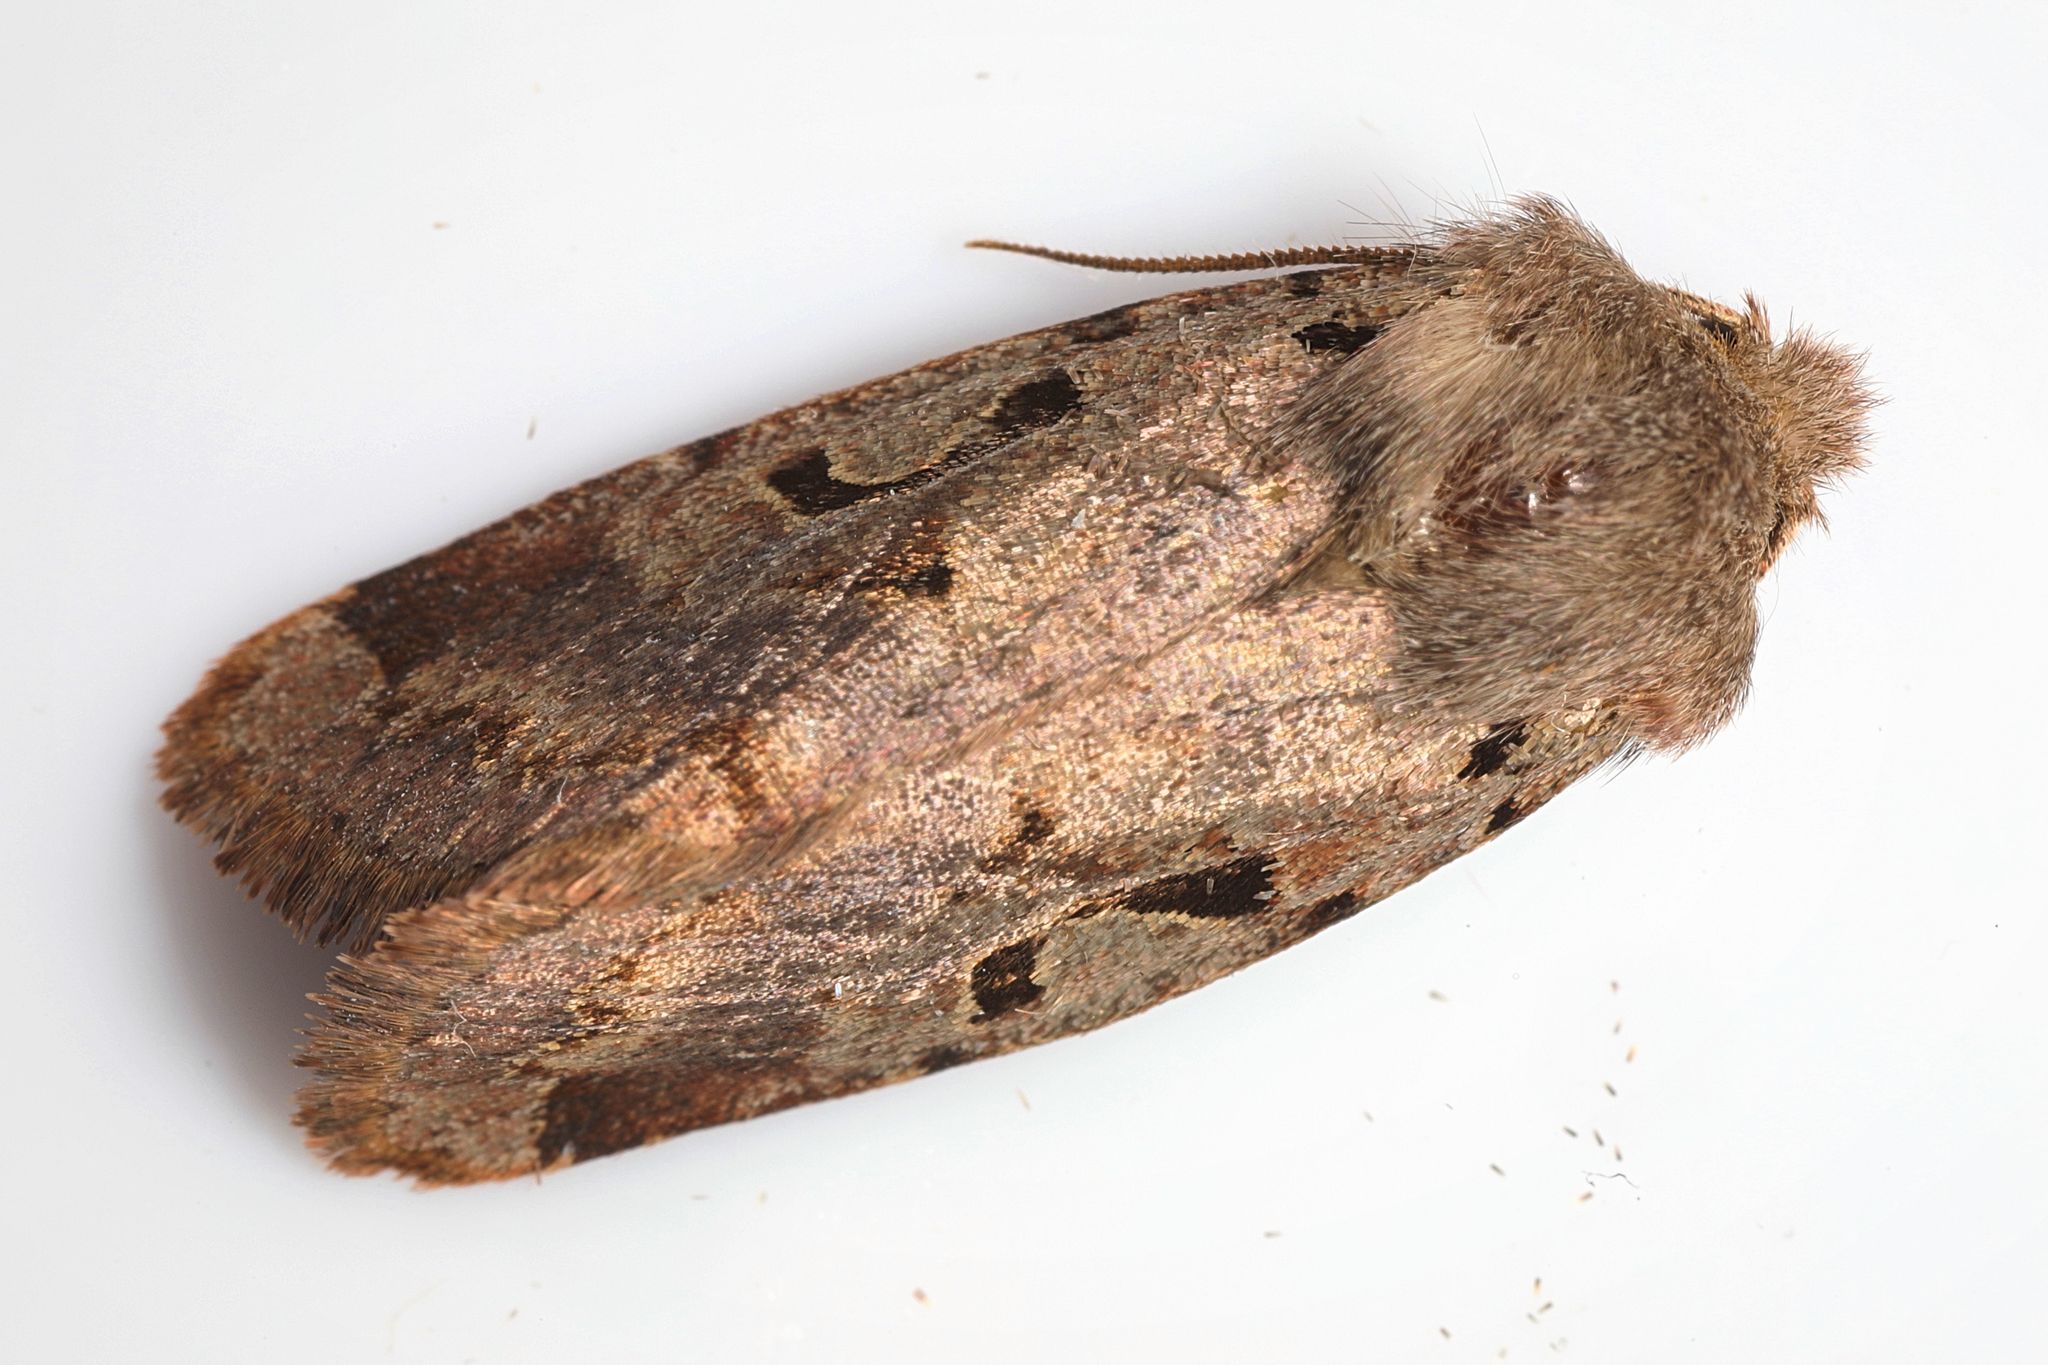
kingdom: Animalia
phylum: Arthropoda
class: Insecta
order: Lepidoptera
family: Noctuidae
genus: Orthosia
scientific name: Orthosia gothica
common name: Hebrew character
